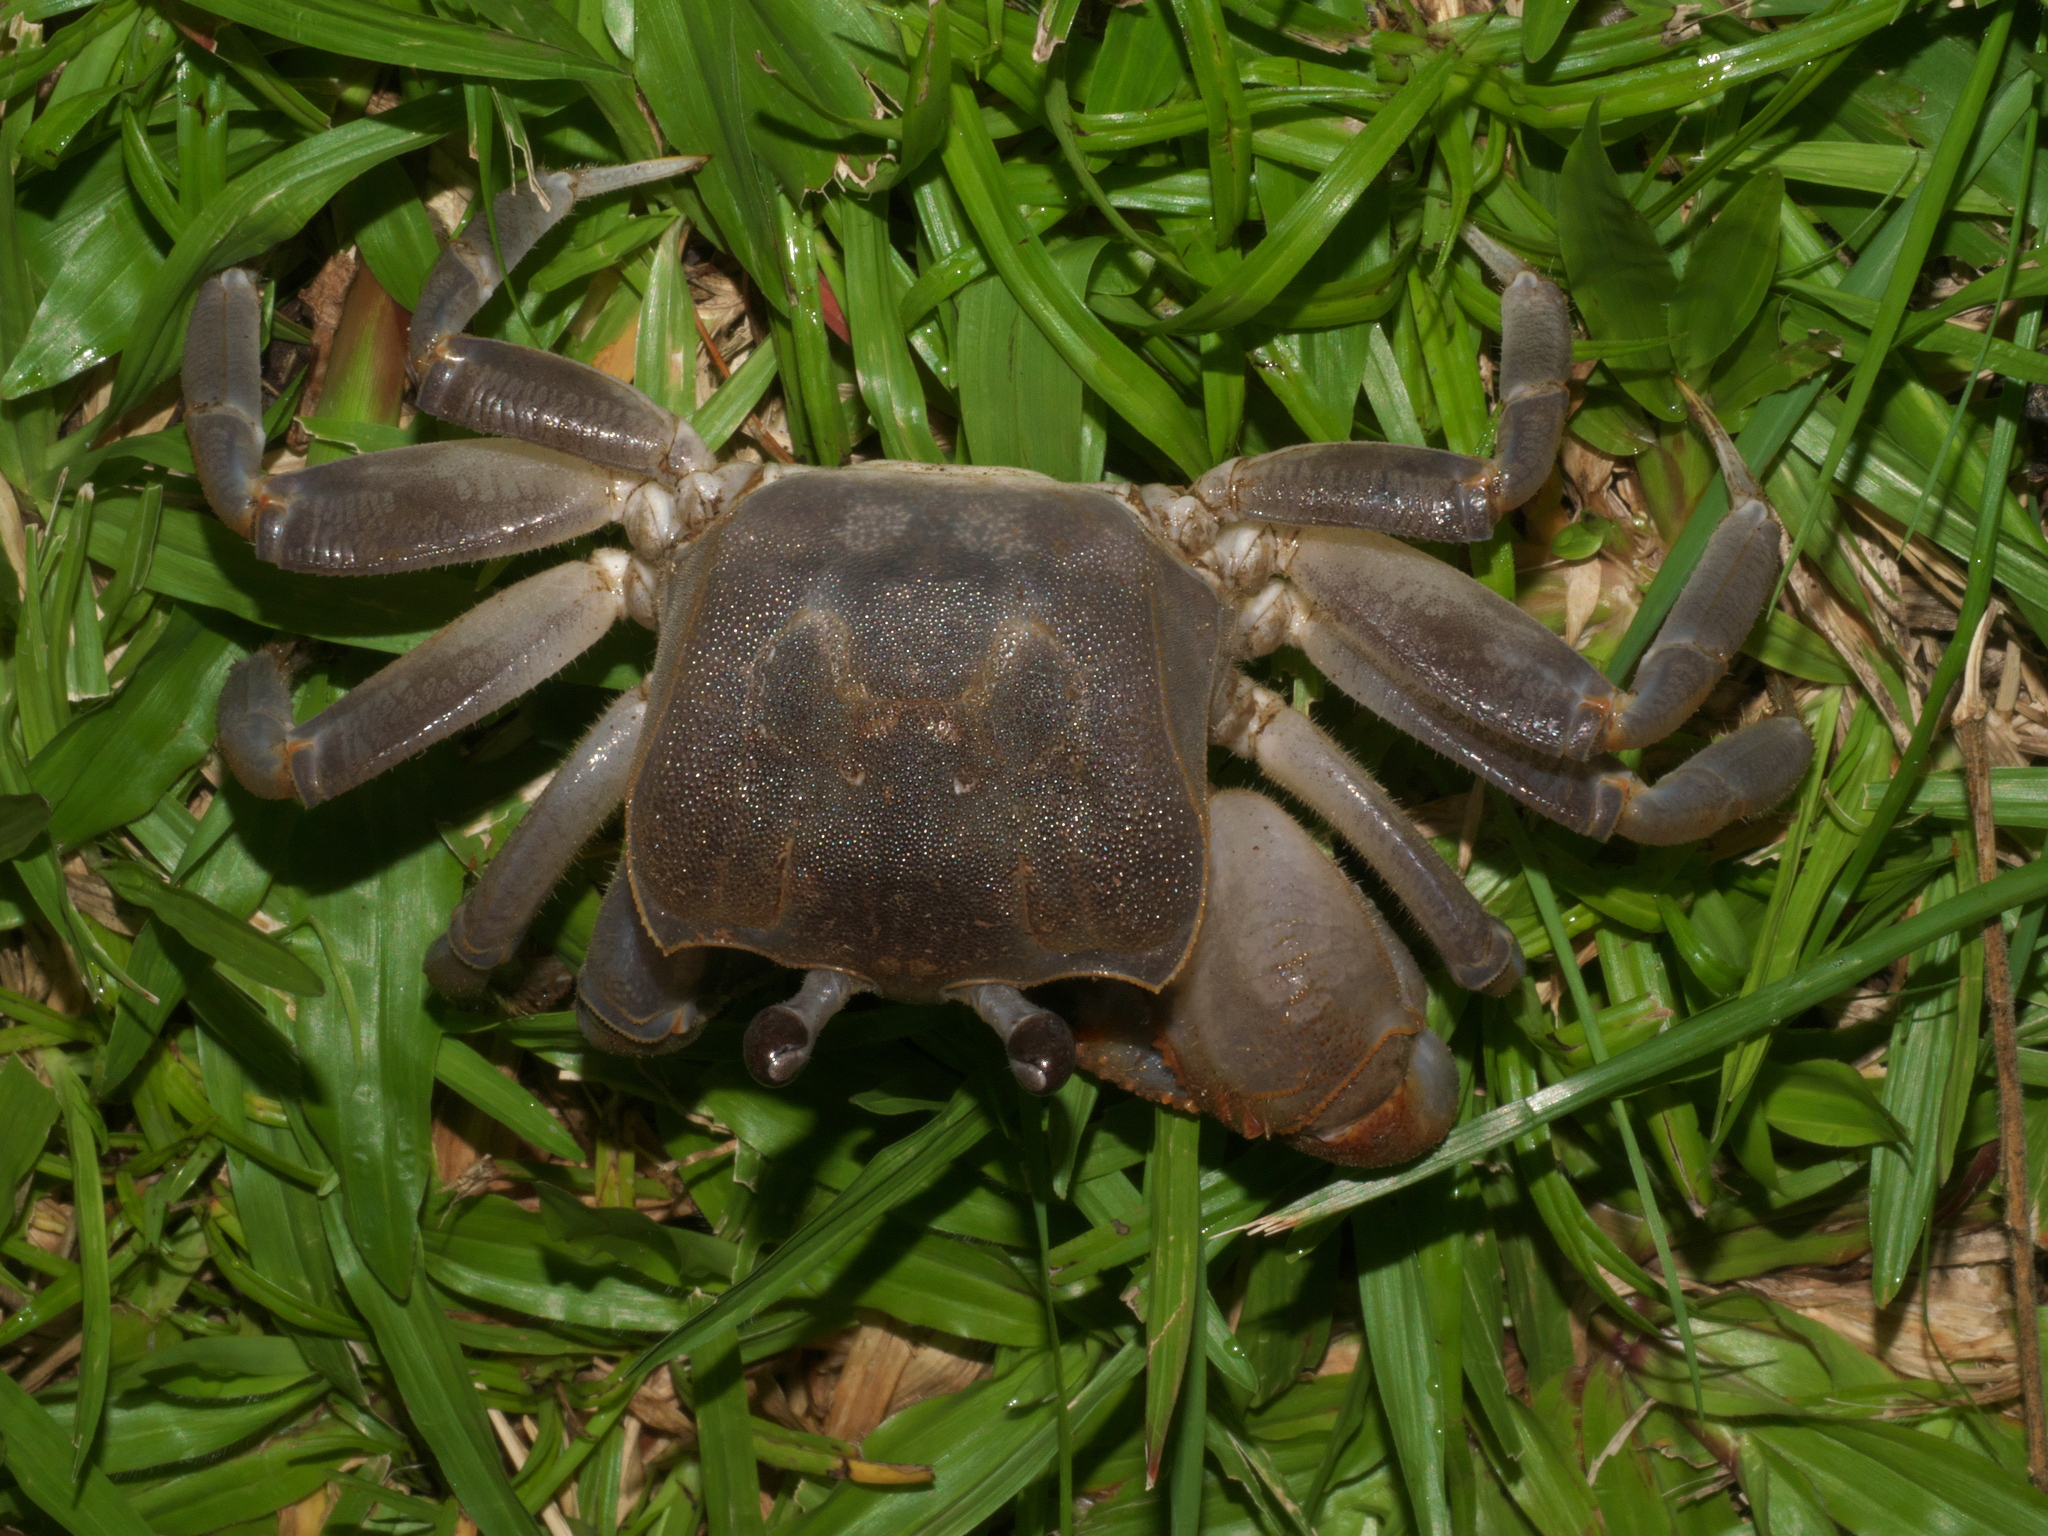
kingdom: Animalia
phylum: Arthropoda
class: Malacostraca
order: Decapoda
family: Ocypodidae
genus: Ocypode
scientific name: Ocypode cordimana
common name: Smooth-eyed ghost crab
